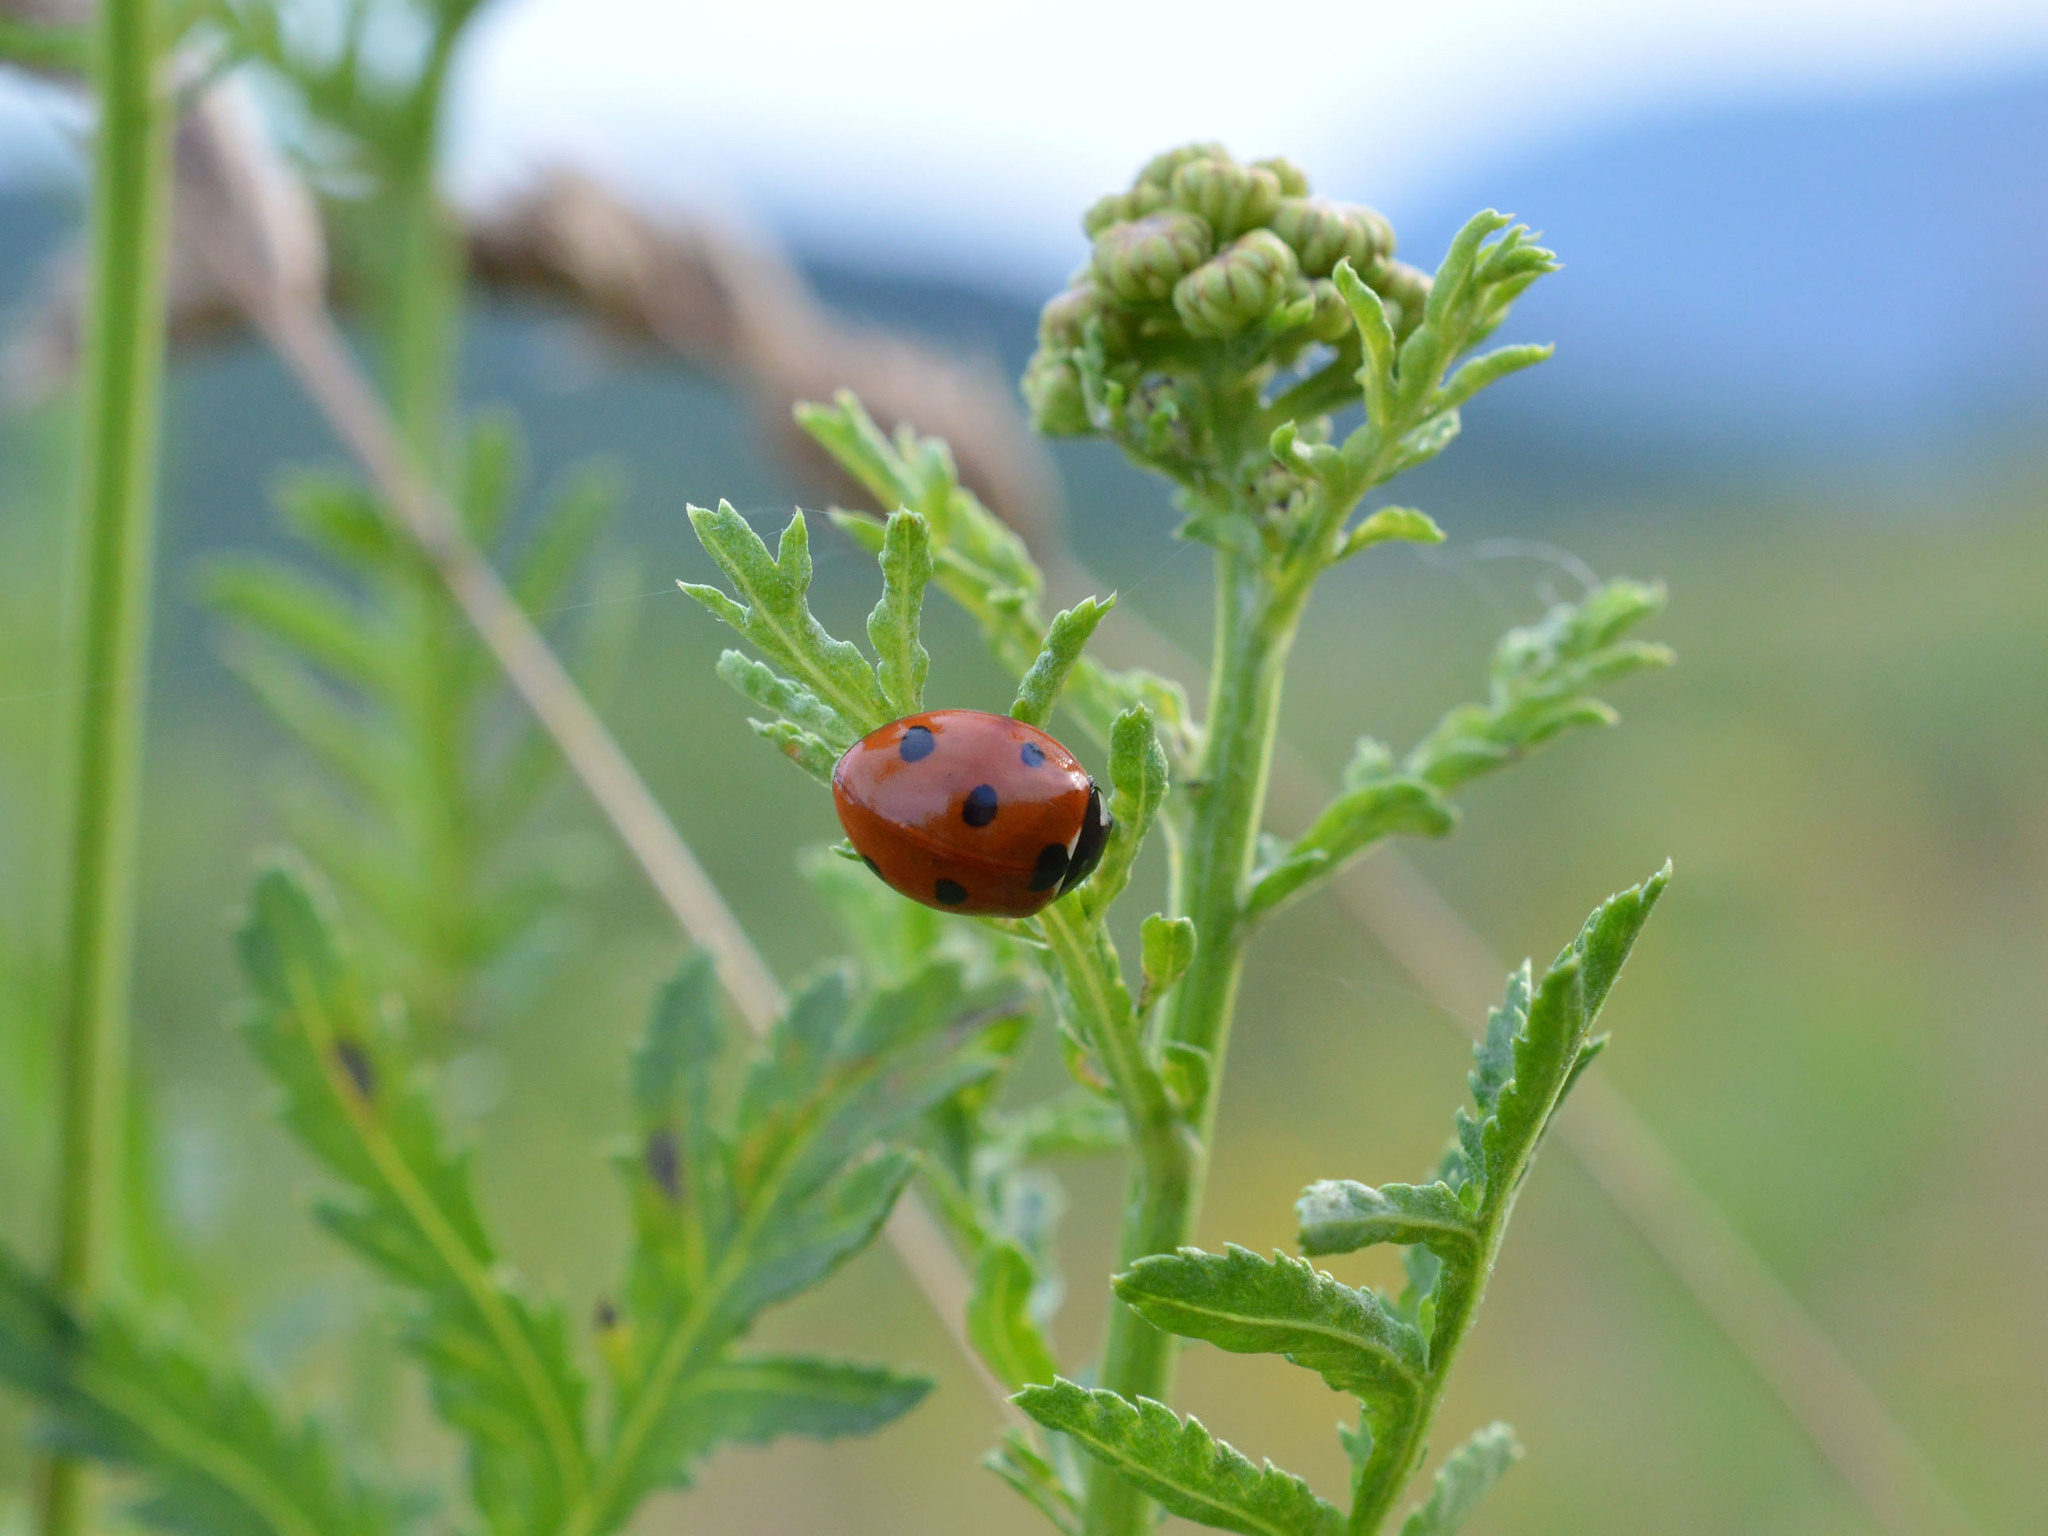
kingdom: Animalia
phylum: Arthropoda
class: Insecta
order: Coleoptera
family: Coccinellidae
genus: Coccinella
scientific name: Coccinella septempunctata
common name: Sevenspotted lady beetle
